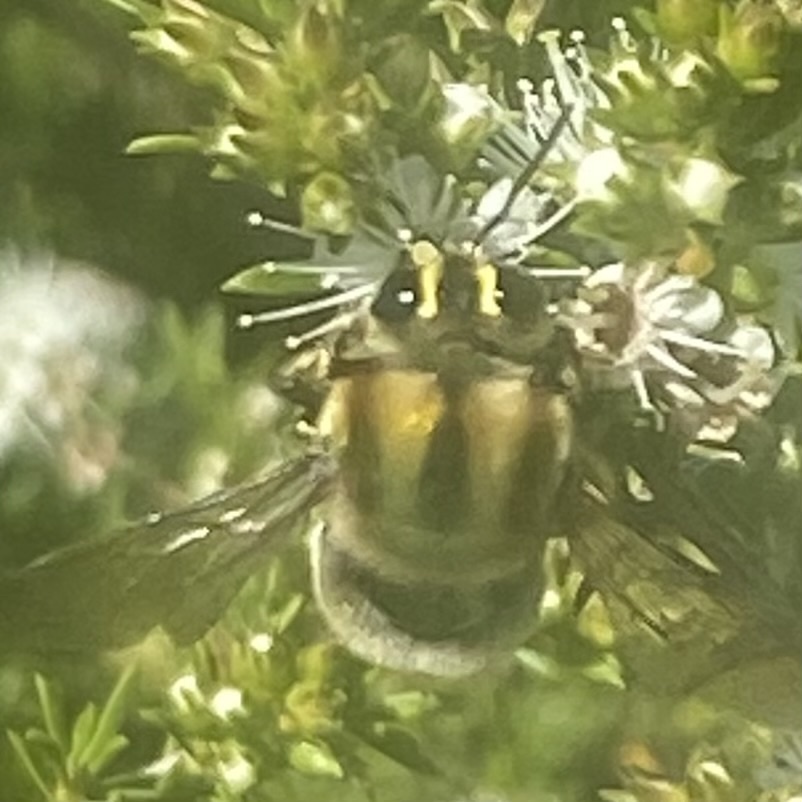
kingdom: Animalia
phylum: Arthropoda
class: Insecta
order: Hymenoptera
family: Apidae
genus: Xylocopa
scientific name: Xylocopa aeratus
